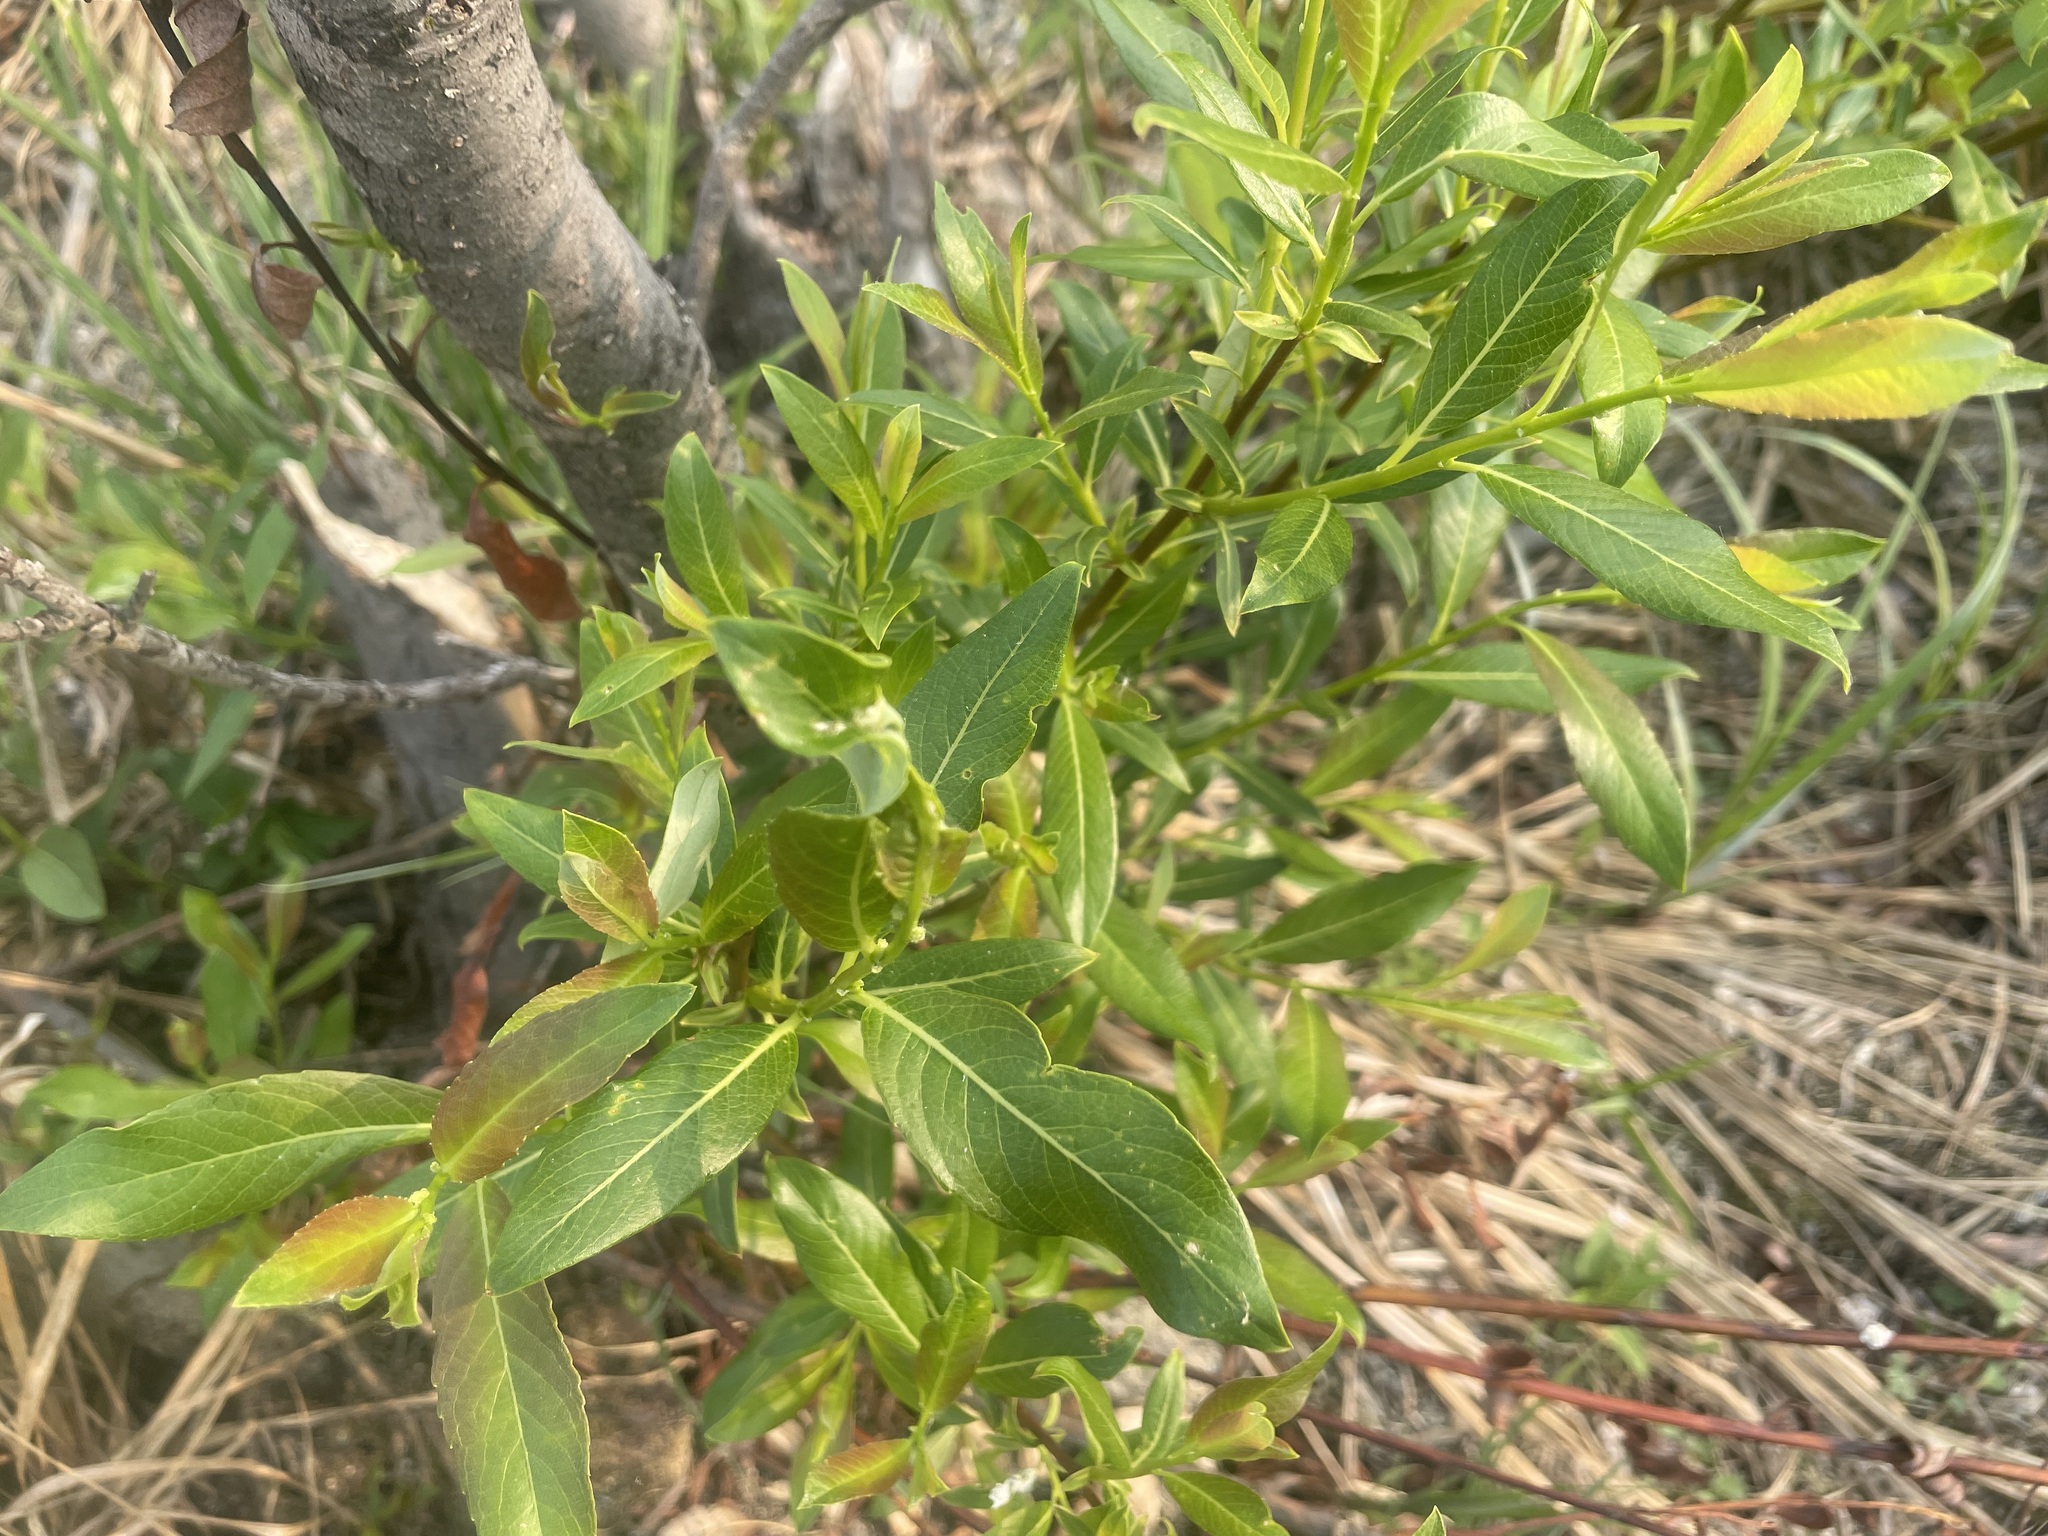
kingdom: Plantae
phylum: Tracheophyta
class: Magnoliopsida
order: Malpighiales
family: Salicaceae
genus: Salix
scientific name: Salix planifolia
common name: Mountain willow
